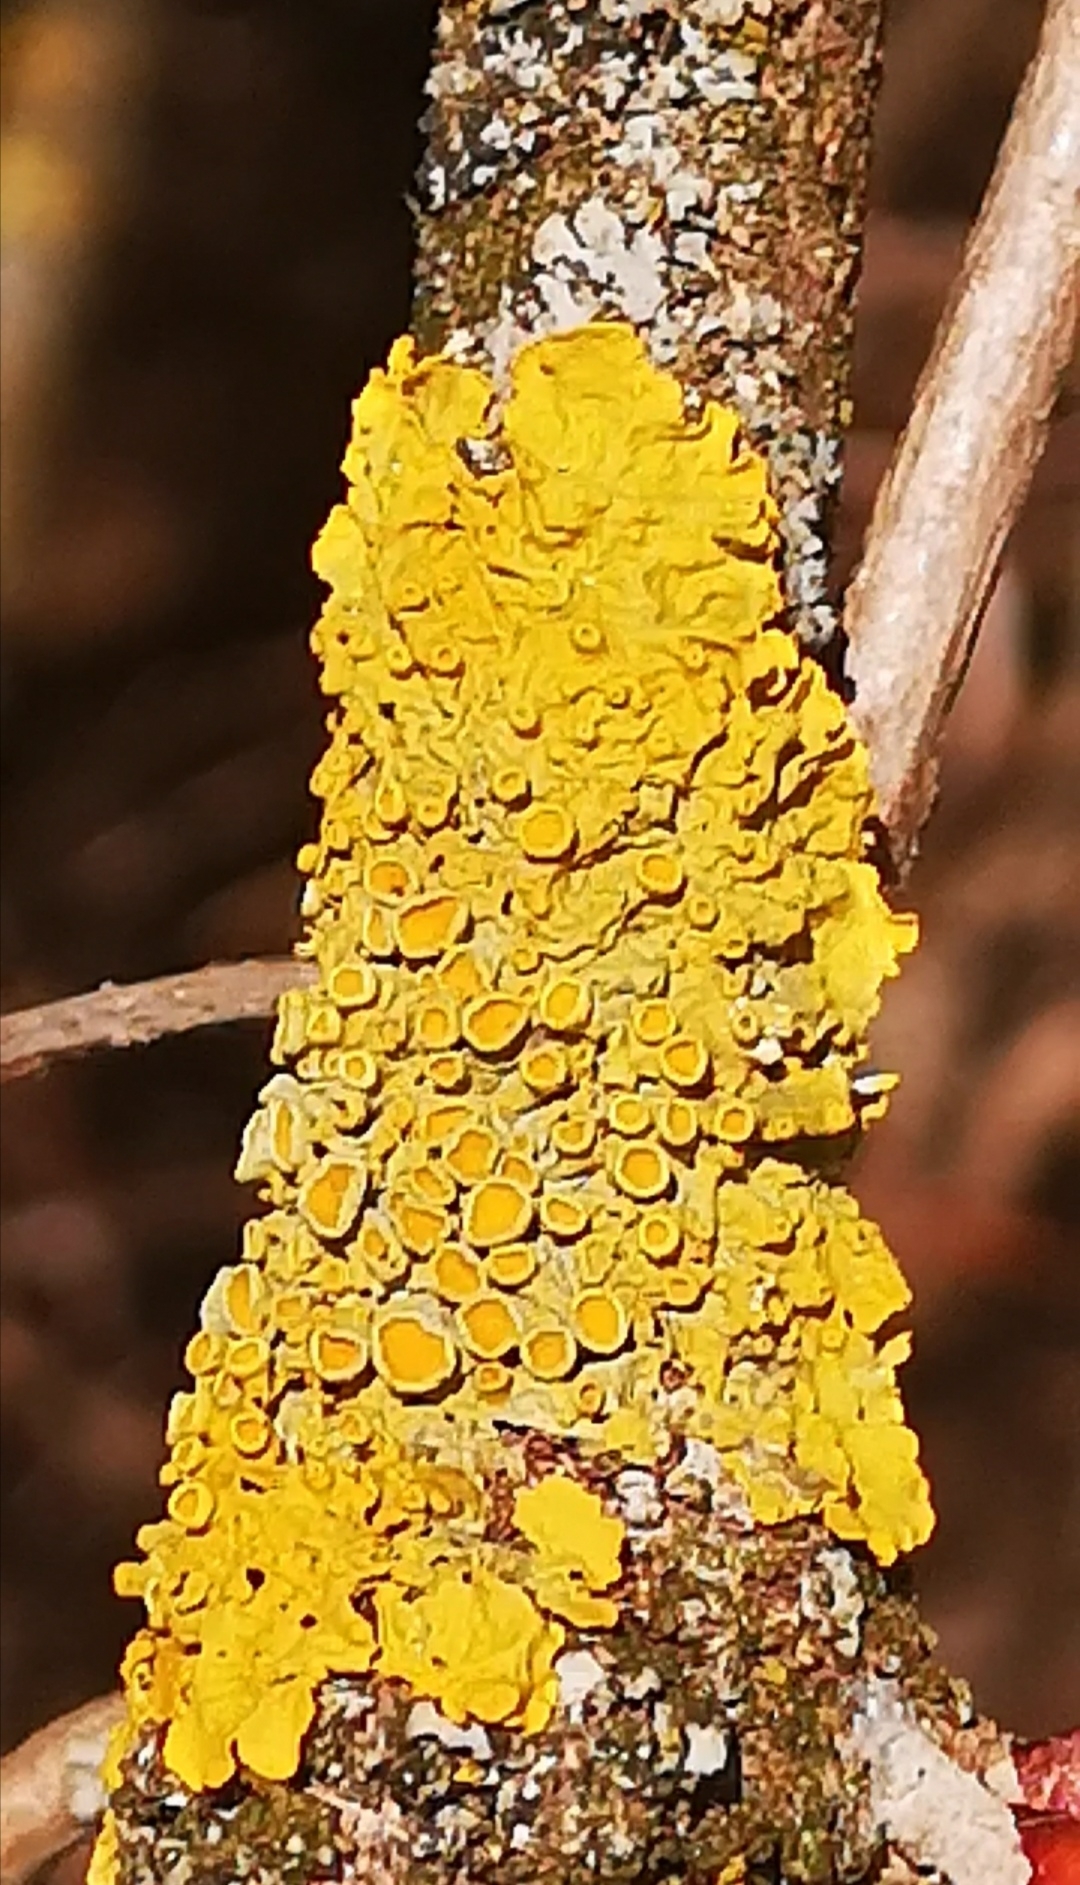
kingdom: Fungi
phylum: Ascomycota
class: Lecanoromycetes
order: Teloschistales
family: Teloschistaceae
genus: Xanthoria
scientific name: Xanthoria parietina
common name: Common orange lichen
